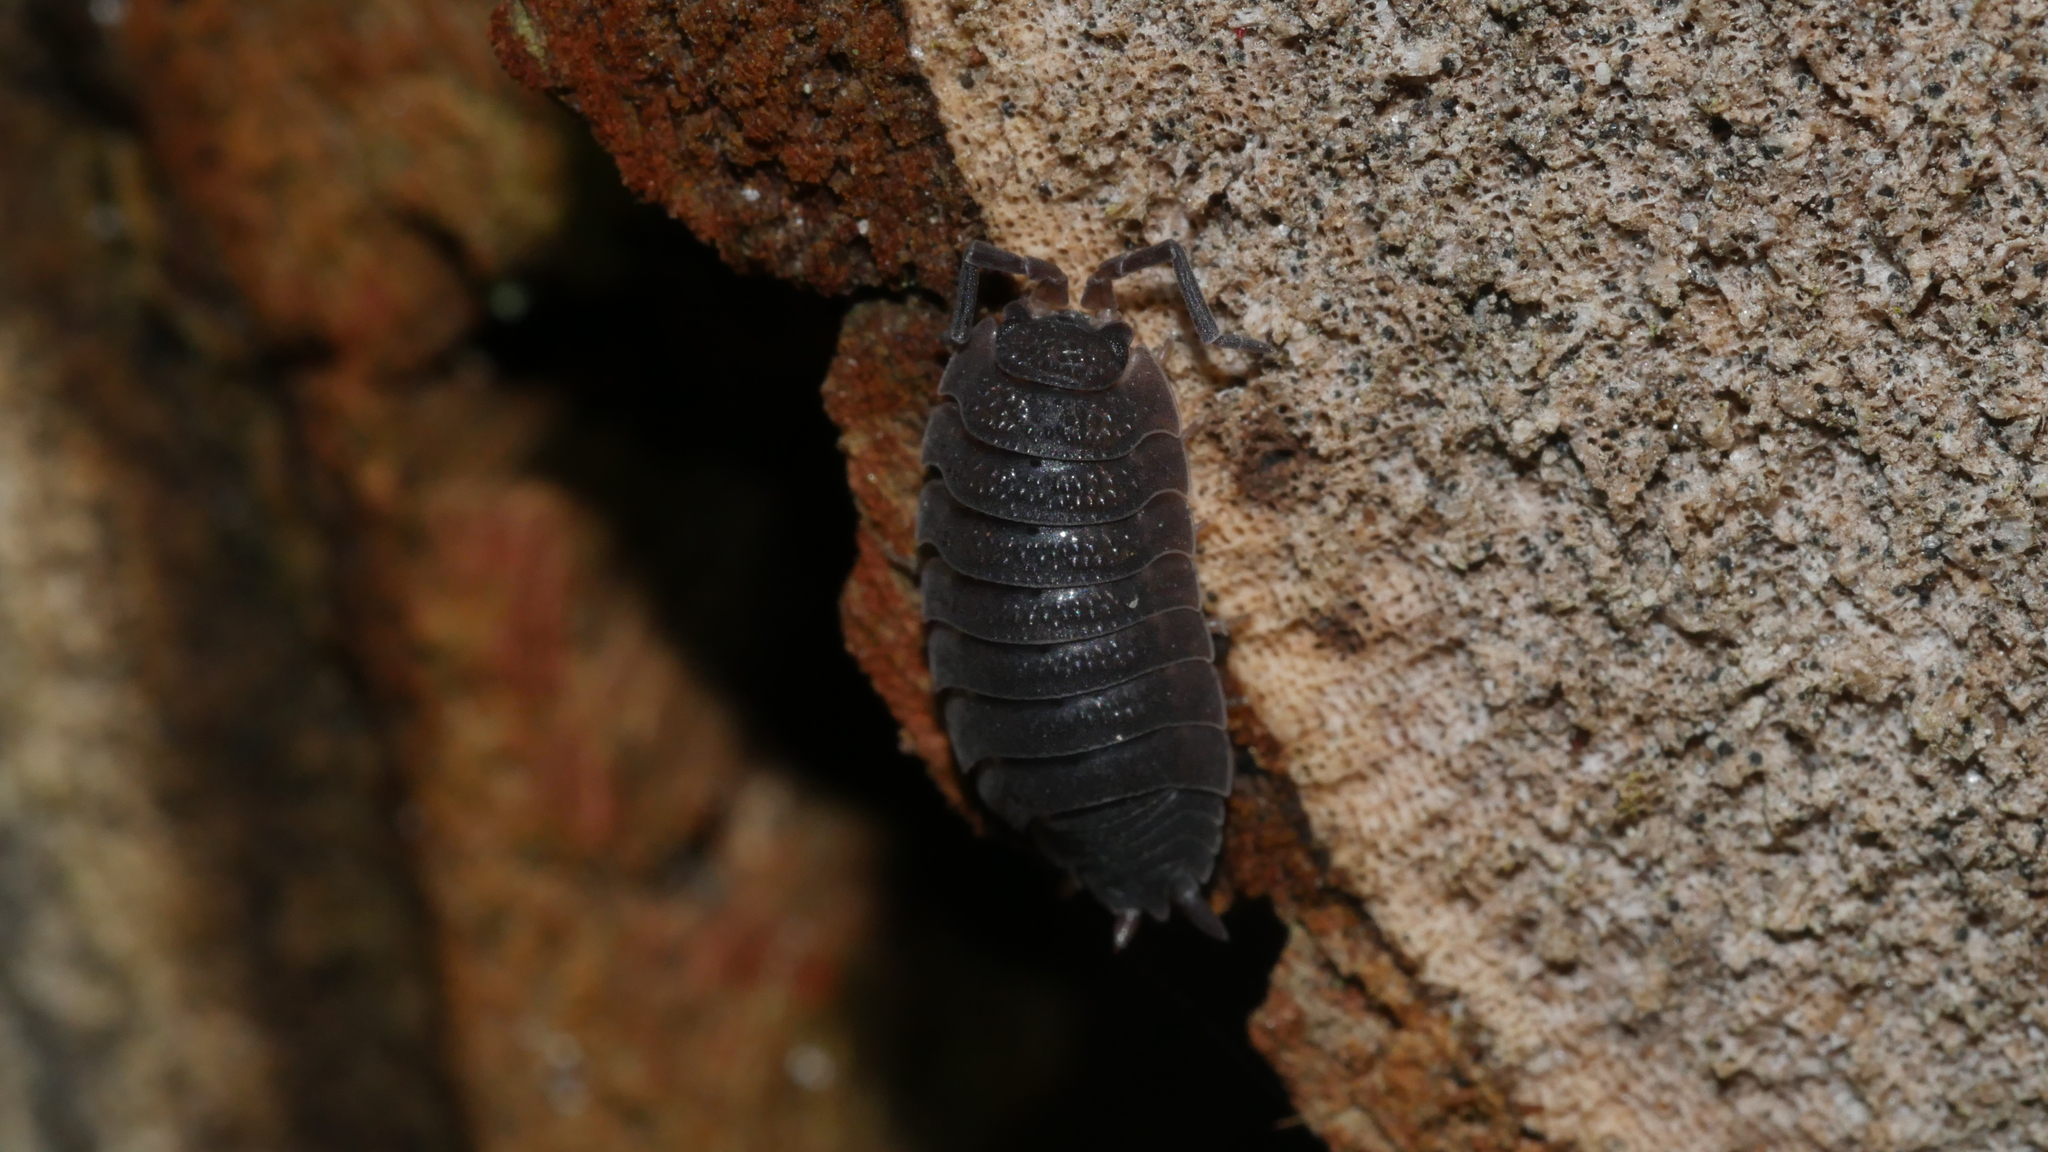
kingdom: Animalia
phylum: Arthropoda
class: Malacostraca
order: Isopoda
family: Porcellionidae
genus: Porcellio
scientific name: Porcellio scaber
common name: Common rough woodlouse
